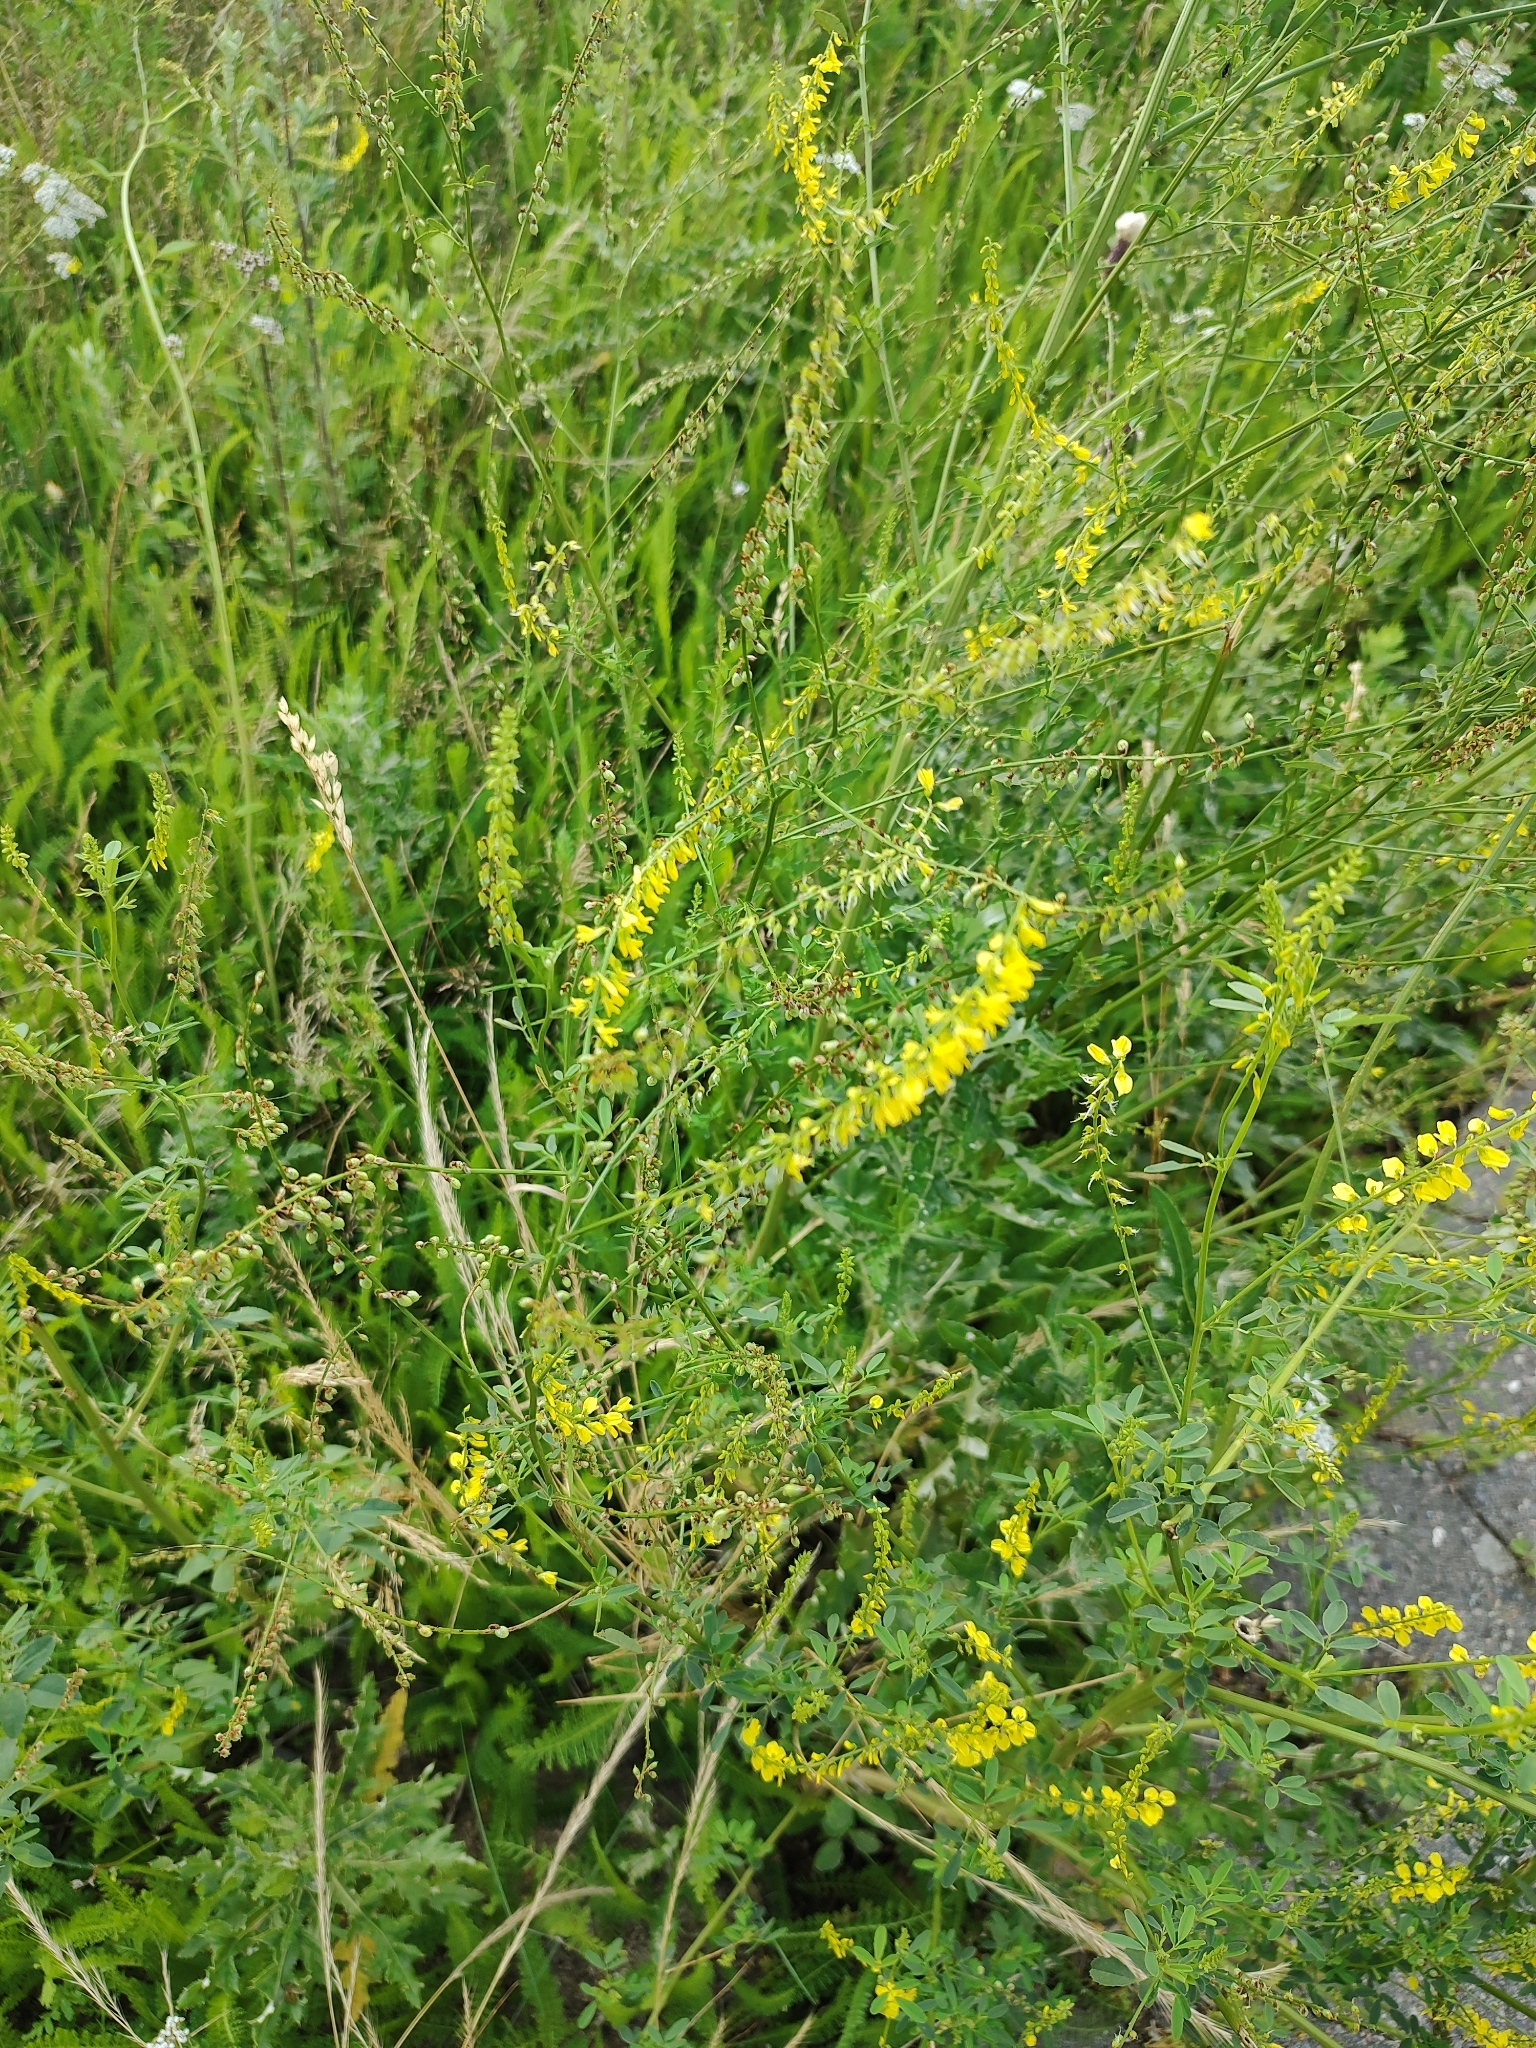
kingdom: Plantae
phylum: Tracheophyta
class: Magnoliopsida
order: Fabales
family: Fabaceae
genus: Melilotus
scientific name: Melilotus officinalis
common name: Sweetclover
